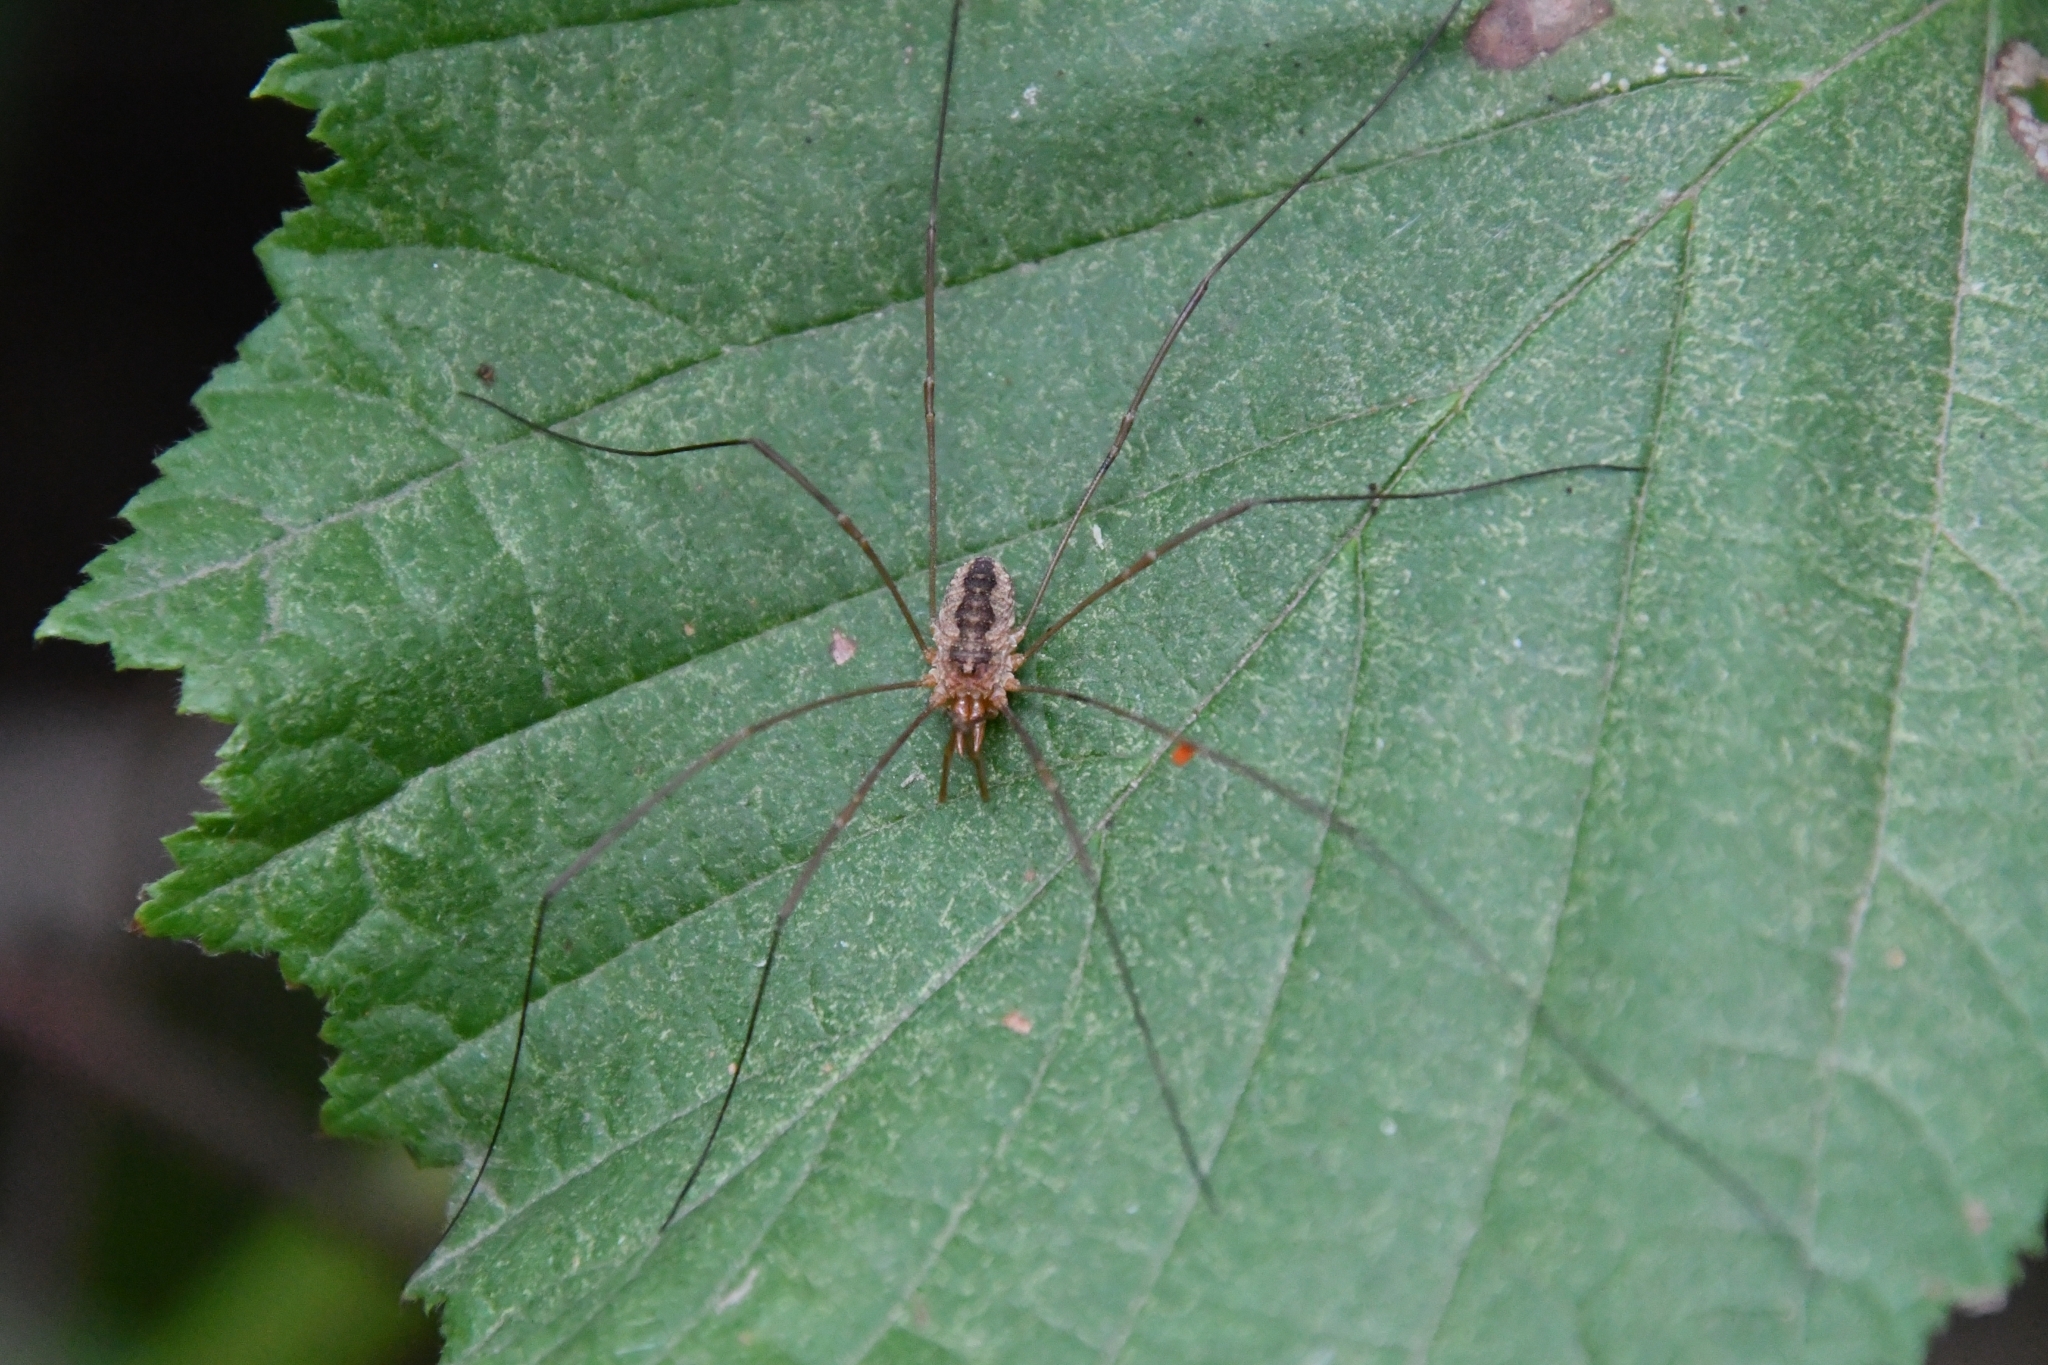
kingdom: Animalia
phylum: Arthropoda
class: Arachnida
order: Opiliones
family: Phalangiidae
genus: Phalangium
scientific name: Phalangium opilio
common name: Daddy longleg
